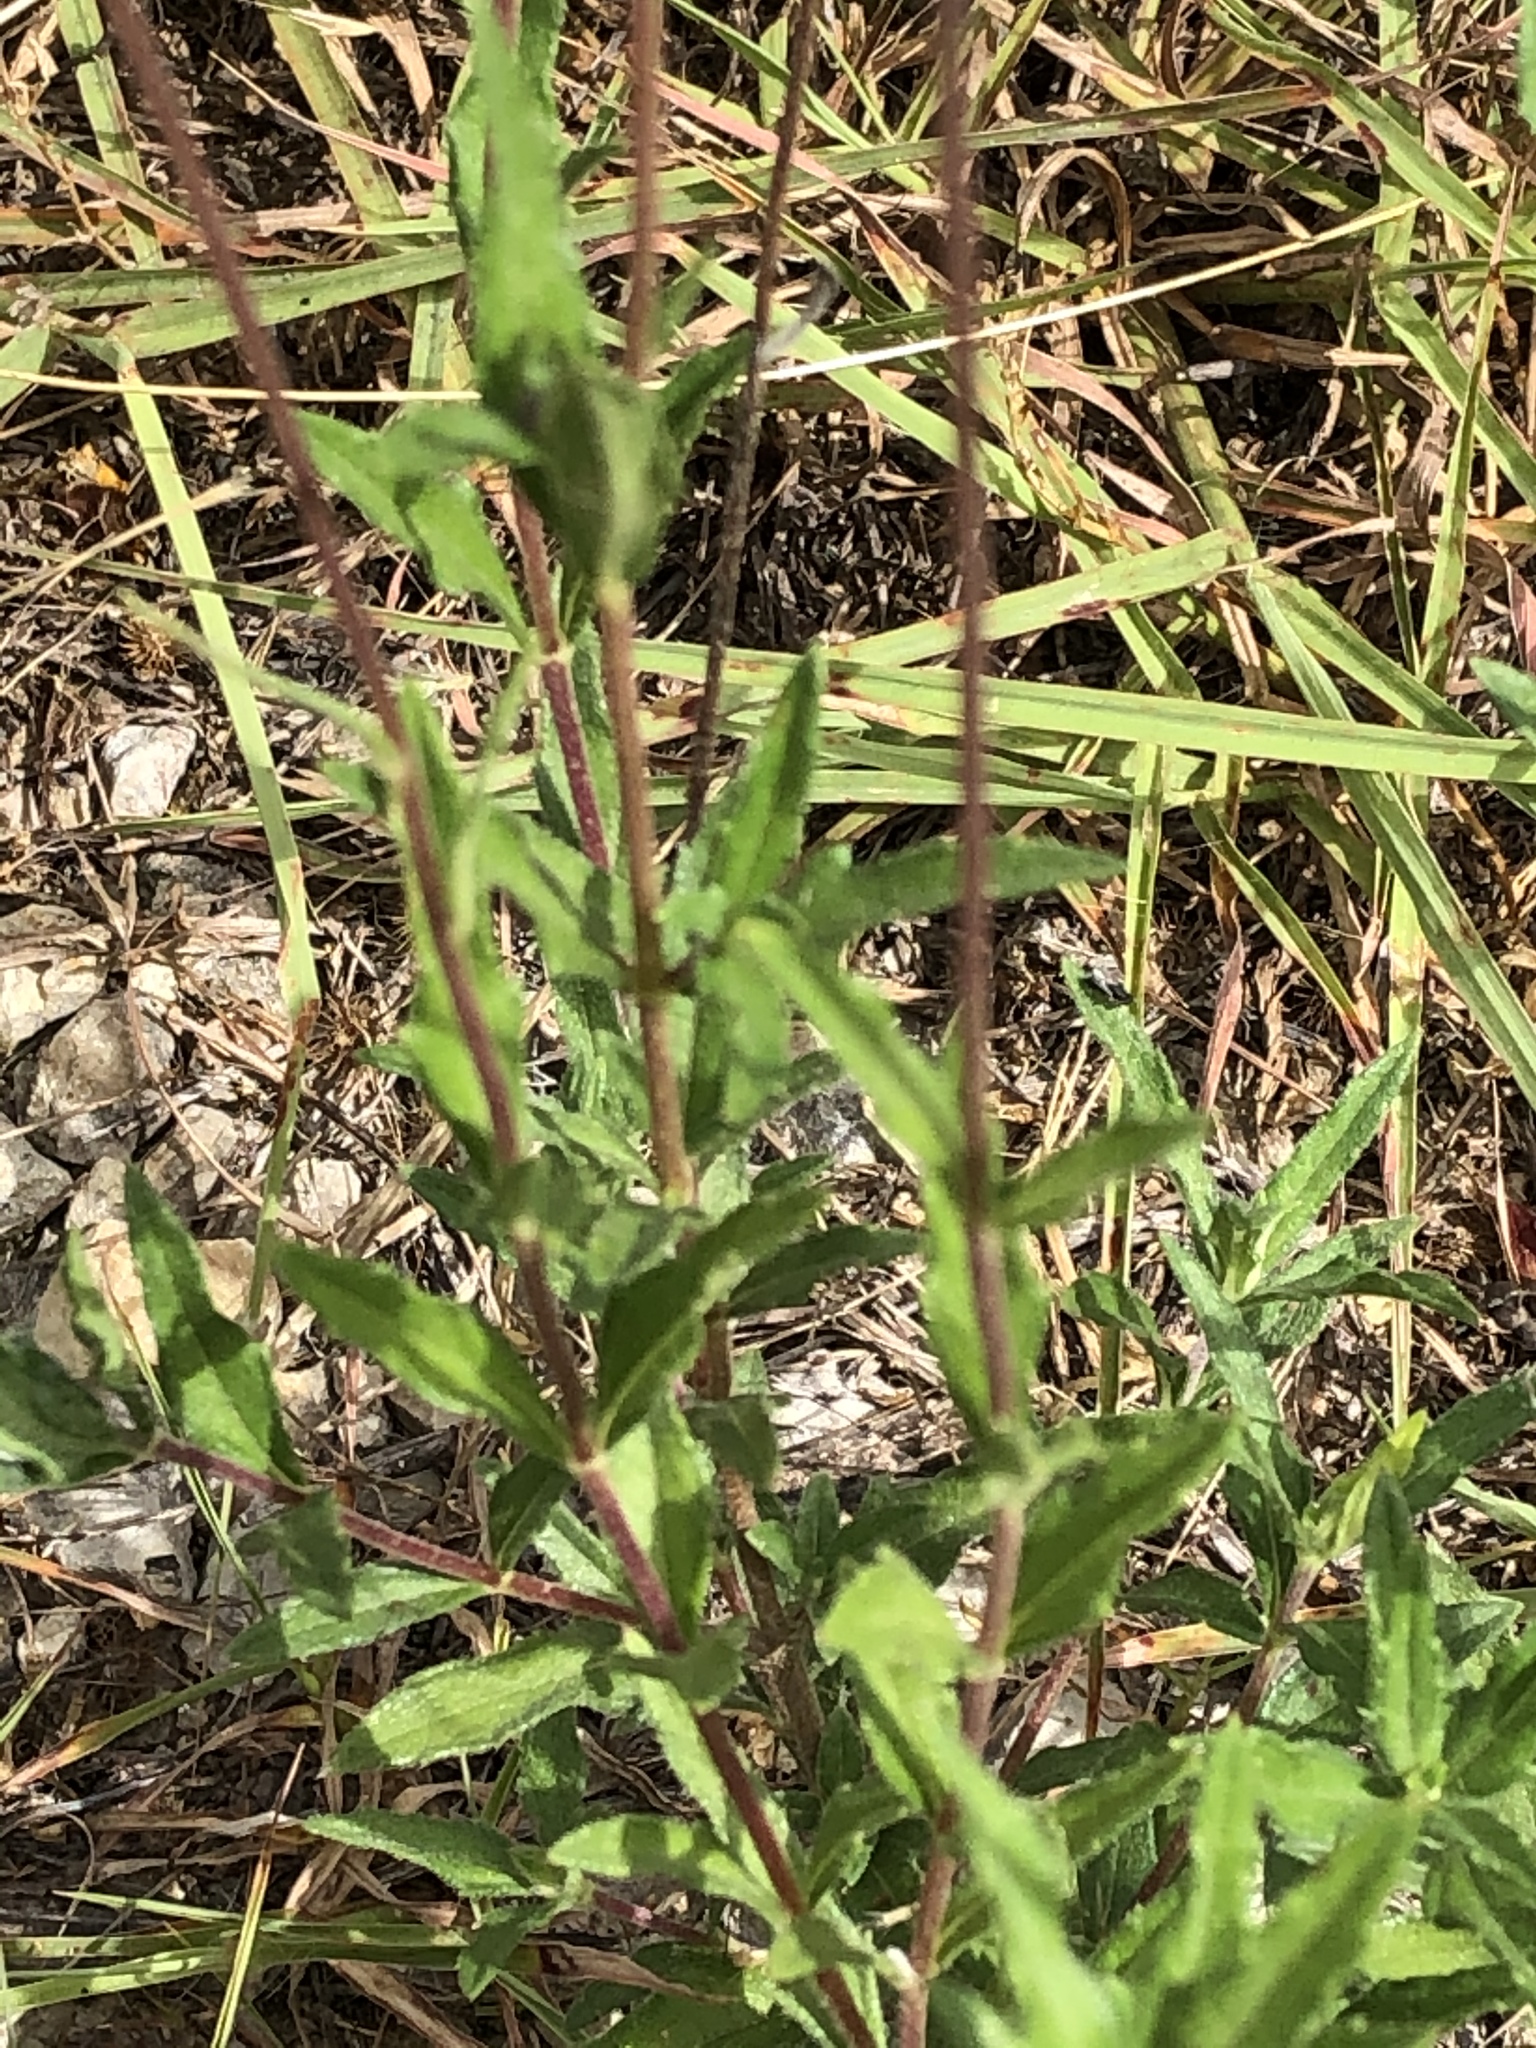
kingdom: Plantae
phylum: Tracheophyta
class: Magnoliopsida
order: Asterales
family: Asteraceae
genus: Wedelia
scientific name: Wedelia acapulcensis
